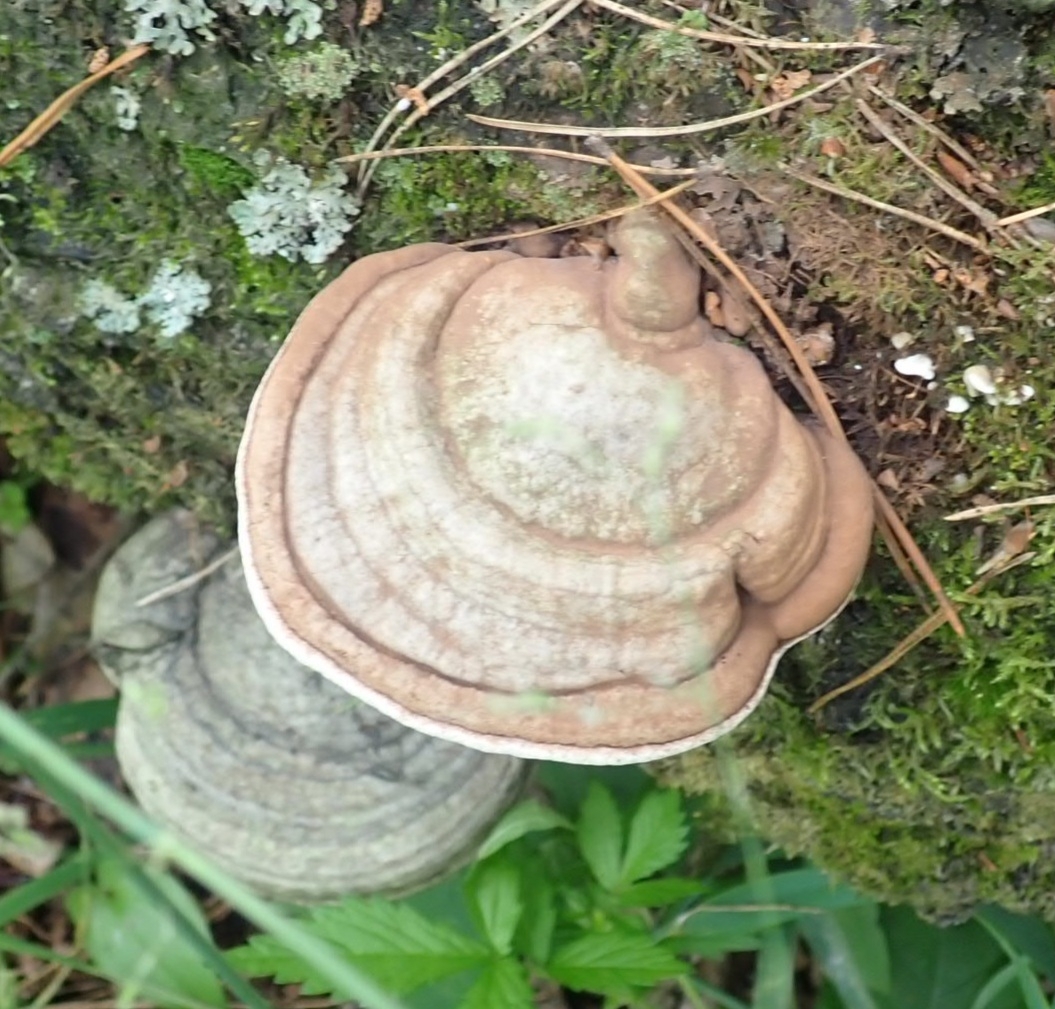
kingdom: Fungi
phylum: Basidiomycota
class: Agaricomycetes
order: Polyporales
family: Polyporaceae
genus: Ganoderma
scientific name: Ganoderma applanatum
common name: Artist's bracket
